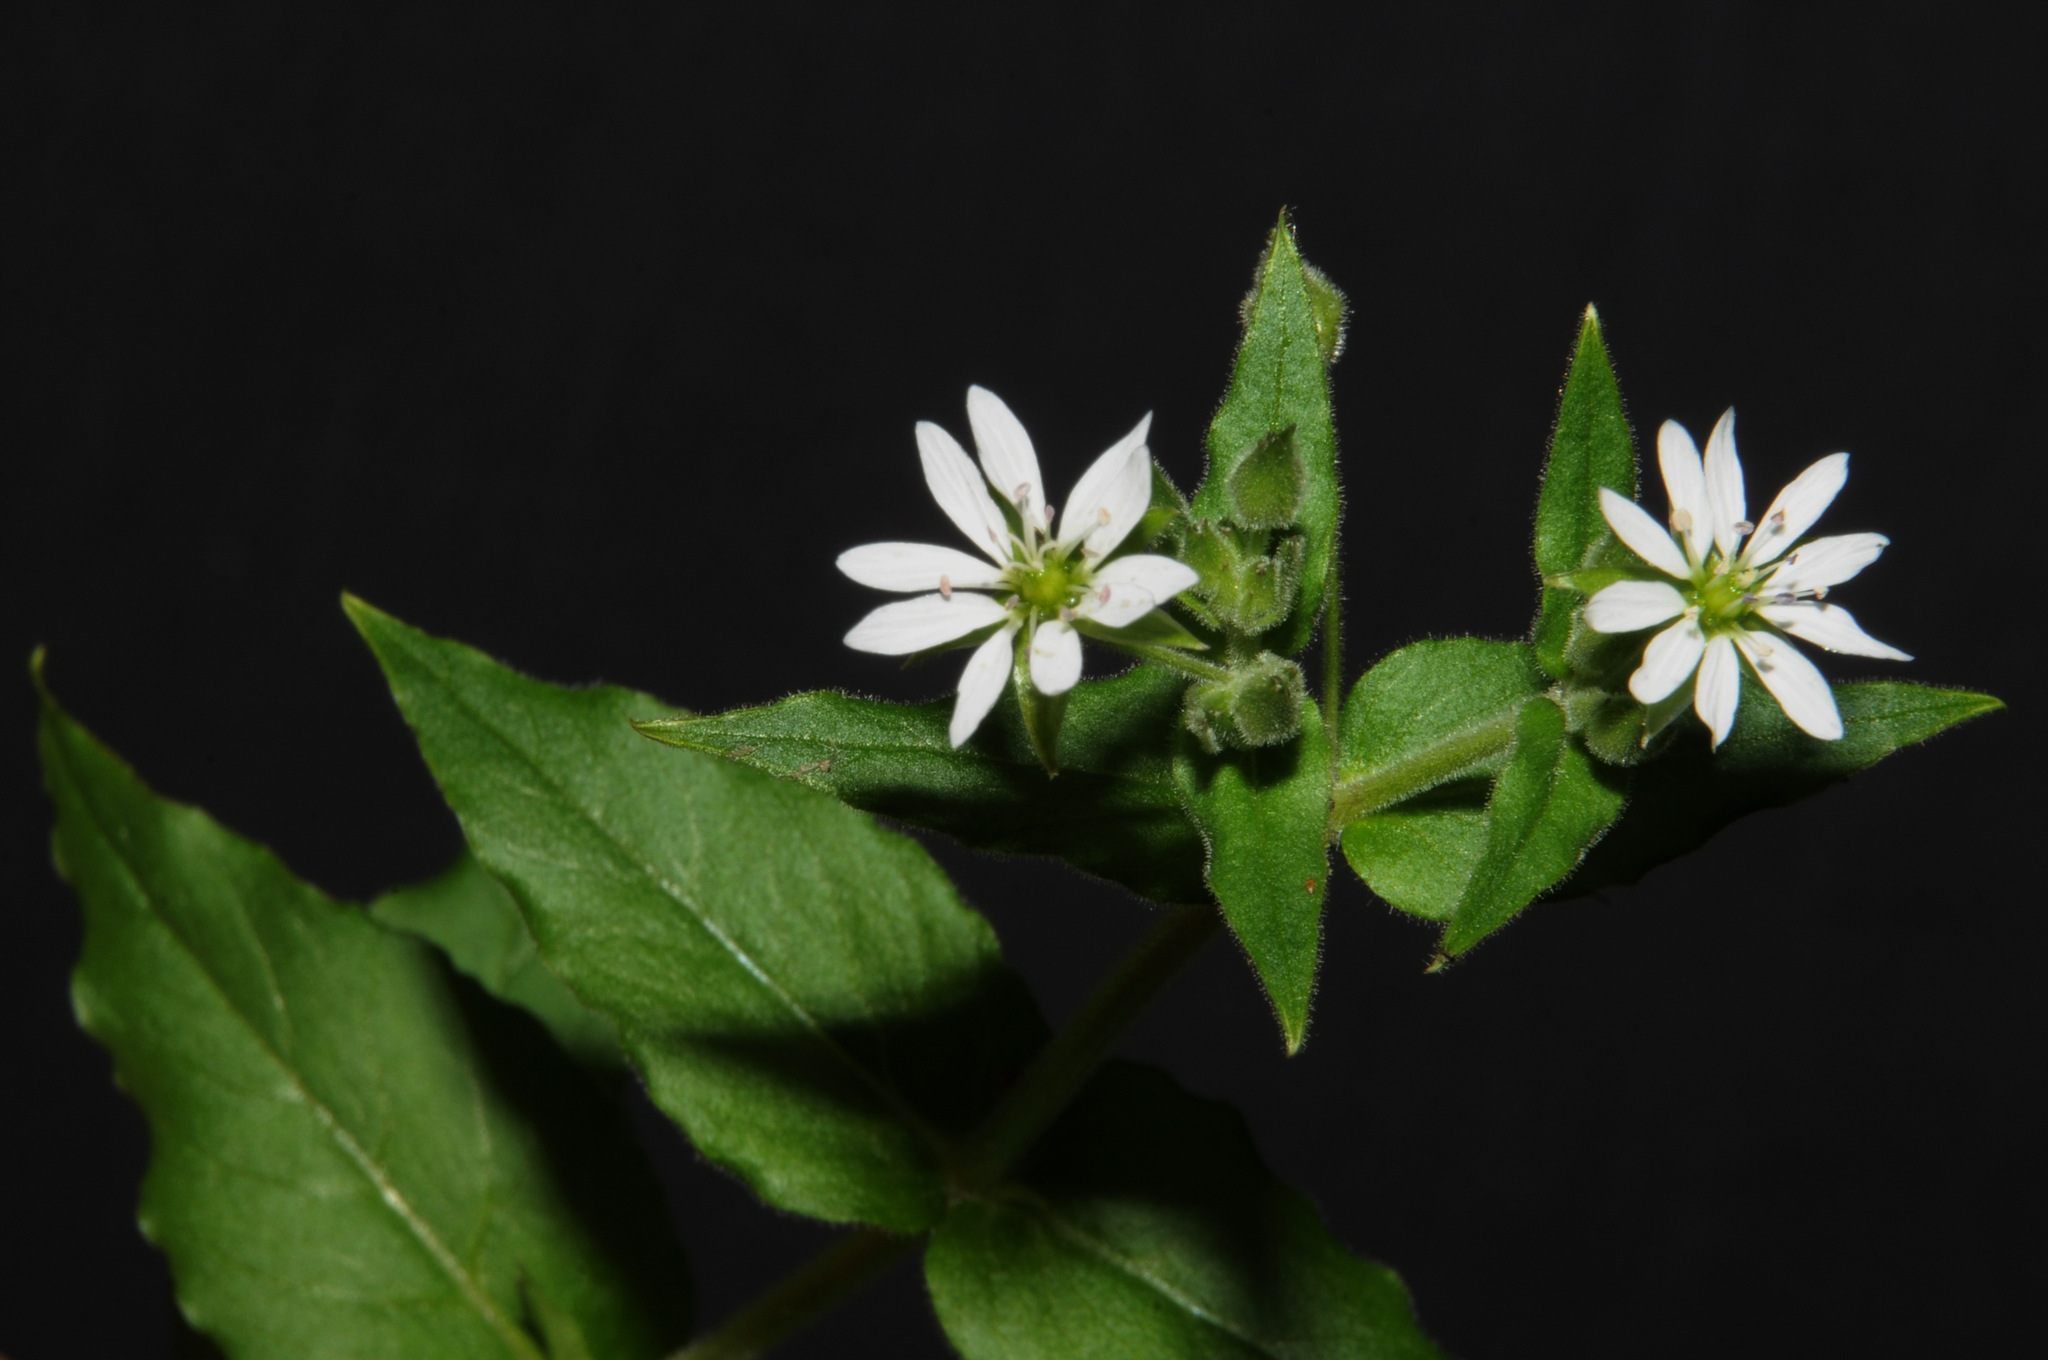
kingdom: Plantae
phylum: Tracheophyta
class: Magnoliopsida
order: Caryophyllales
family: Caryophyllaceae
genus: Stellaria
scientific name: Stellaria aquatica
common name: Water chickweed
